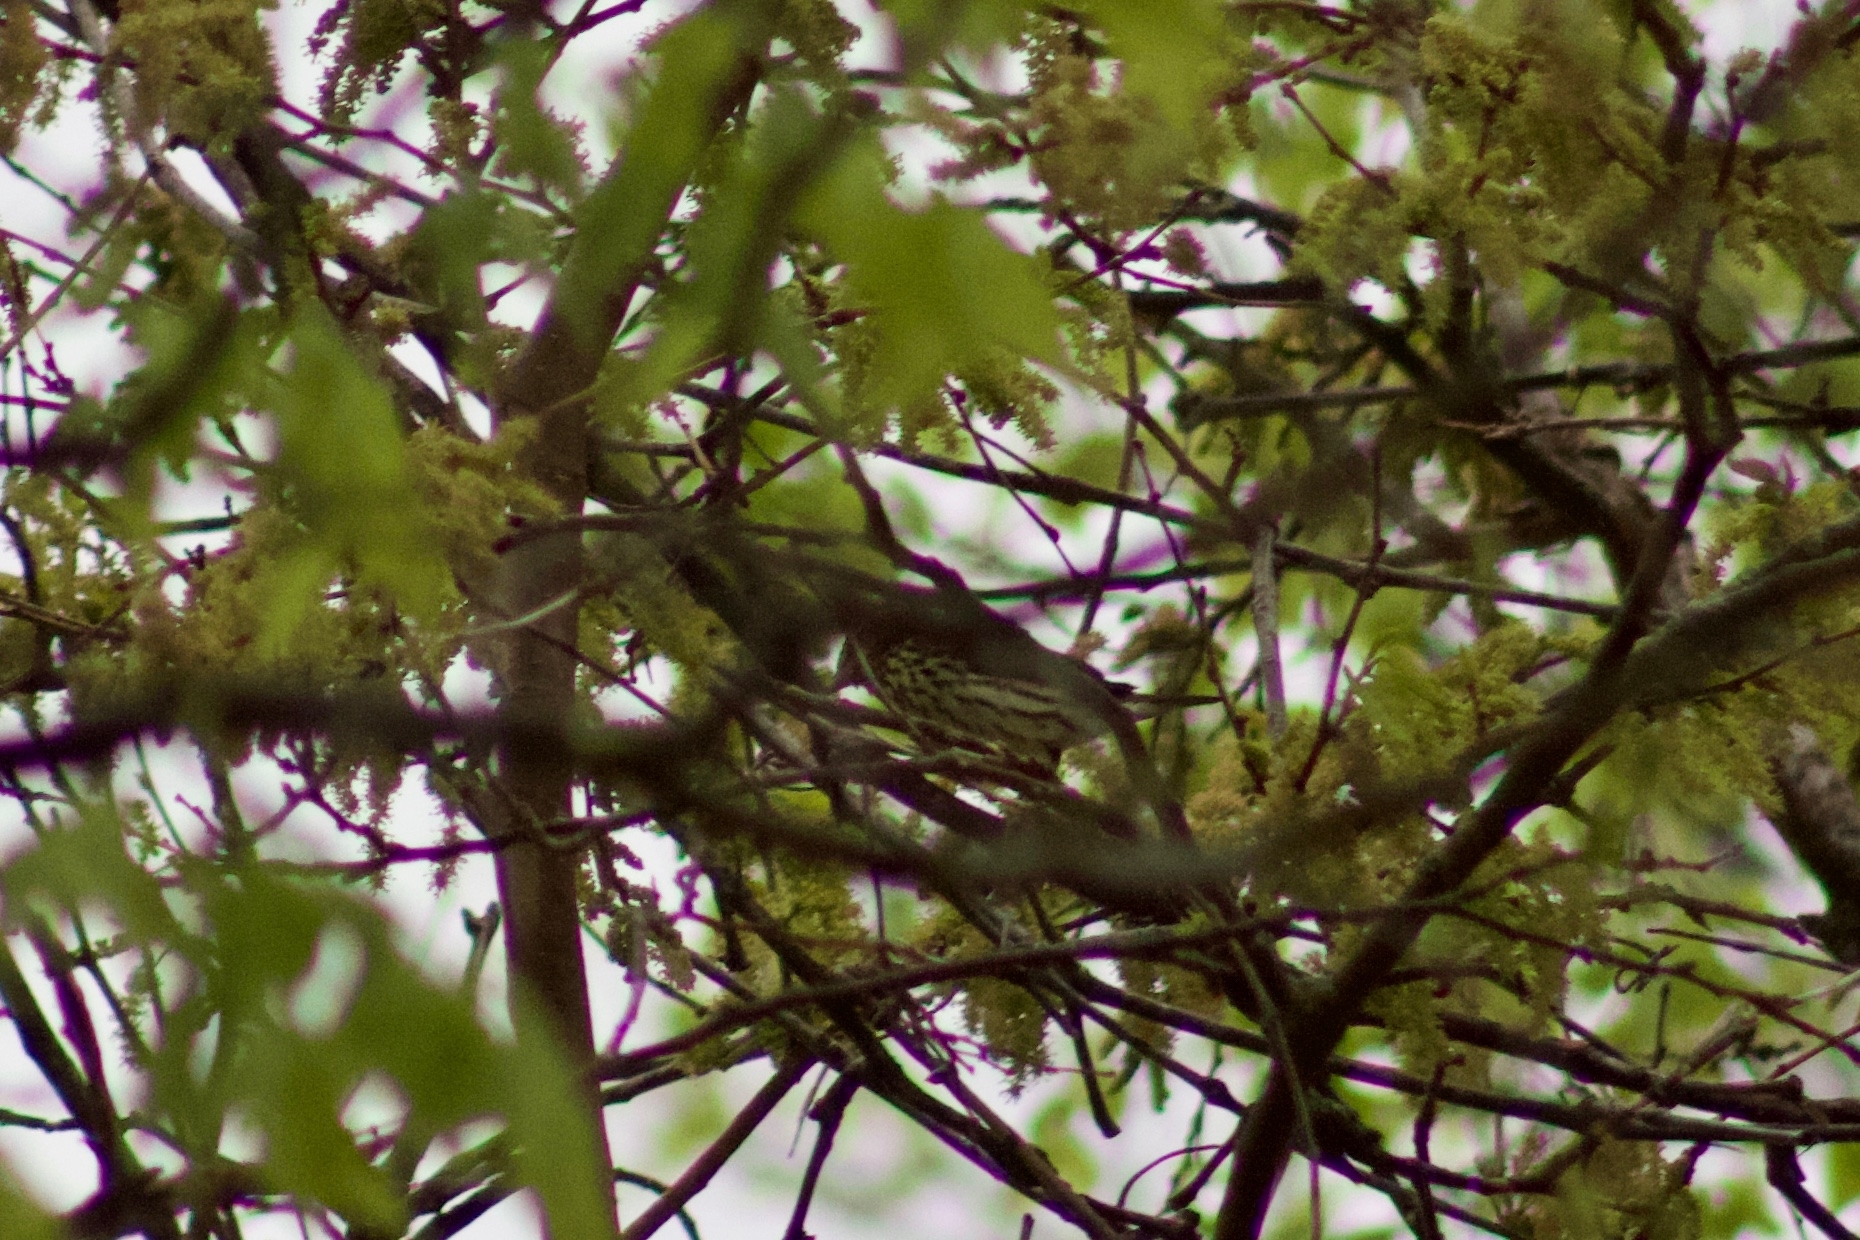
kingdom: Animalia
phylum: Chordata
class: Aves
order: Passeriformes
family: Parulidae
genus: Parkesia
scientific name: Parkesia noveboracensis
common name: Northern waterthrush
